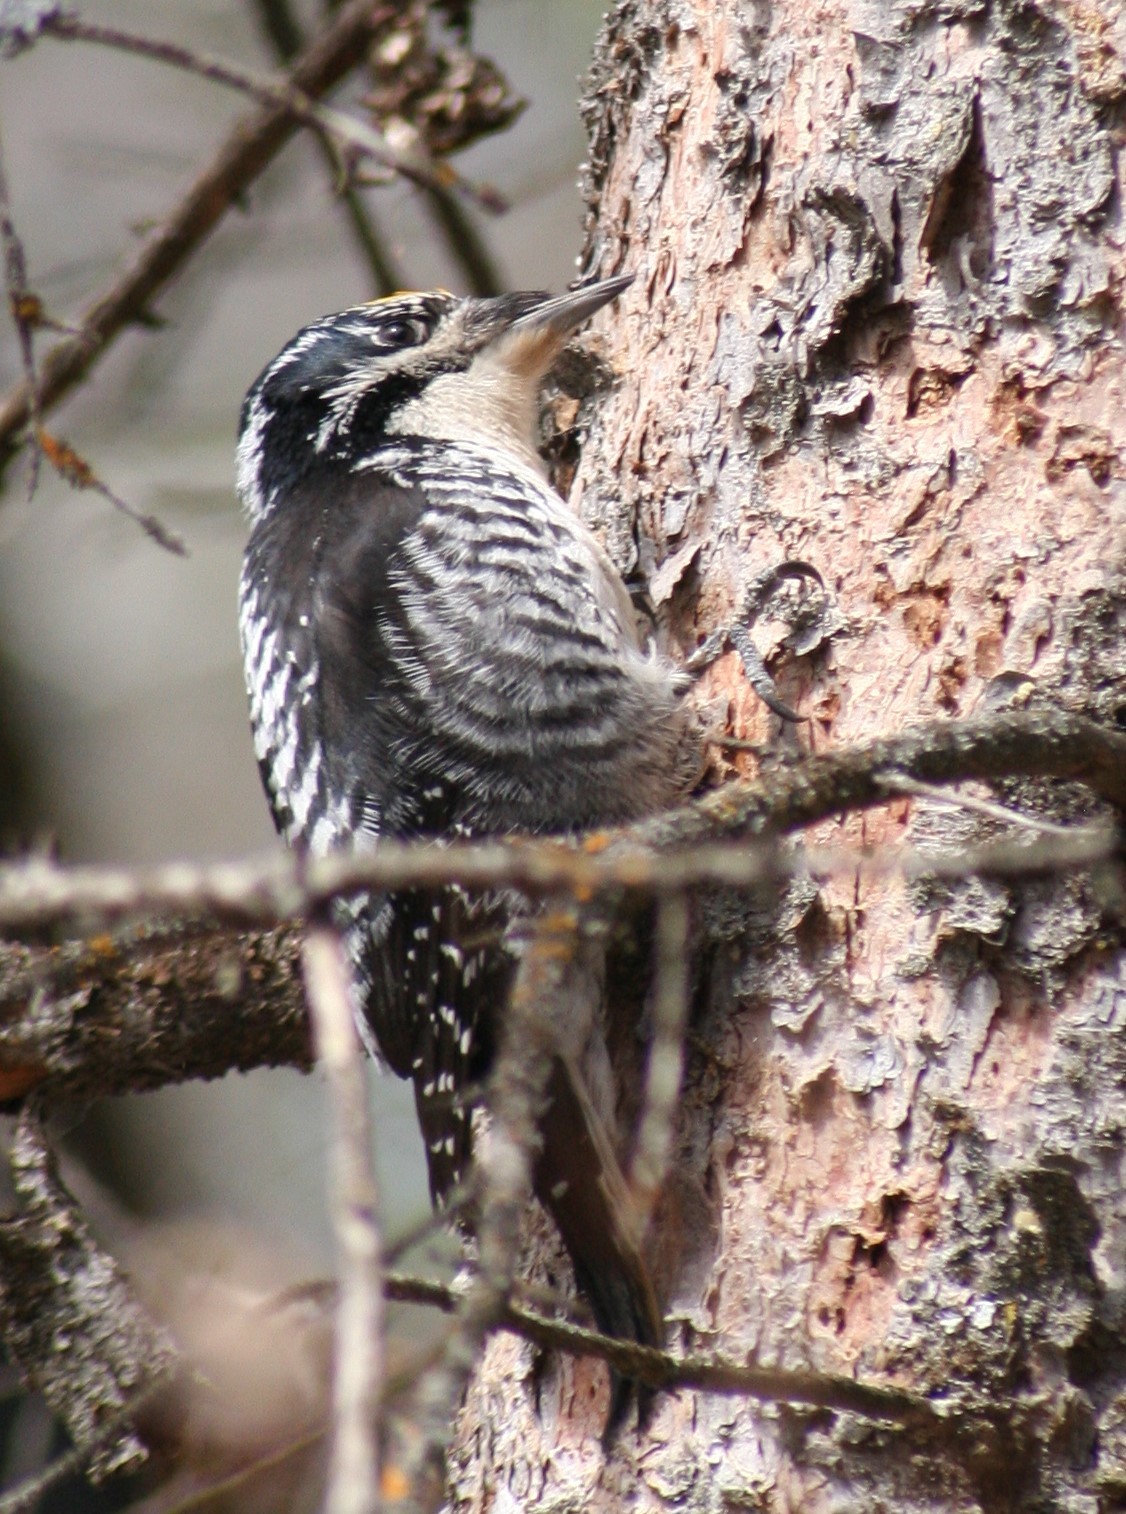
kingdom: Animalia
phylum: Chordata
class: Aves
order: Piciformes
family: Picidae
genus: Picoides
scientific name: Picoides dorsalis
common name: American three-toed woodpecker
